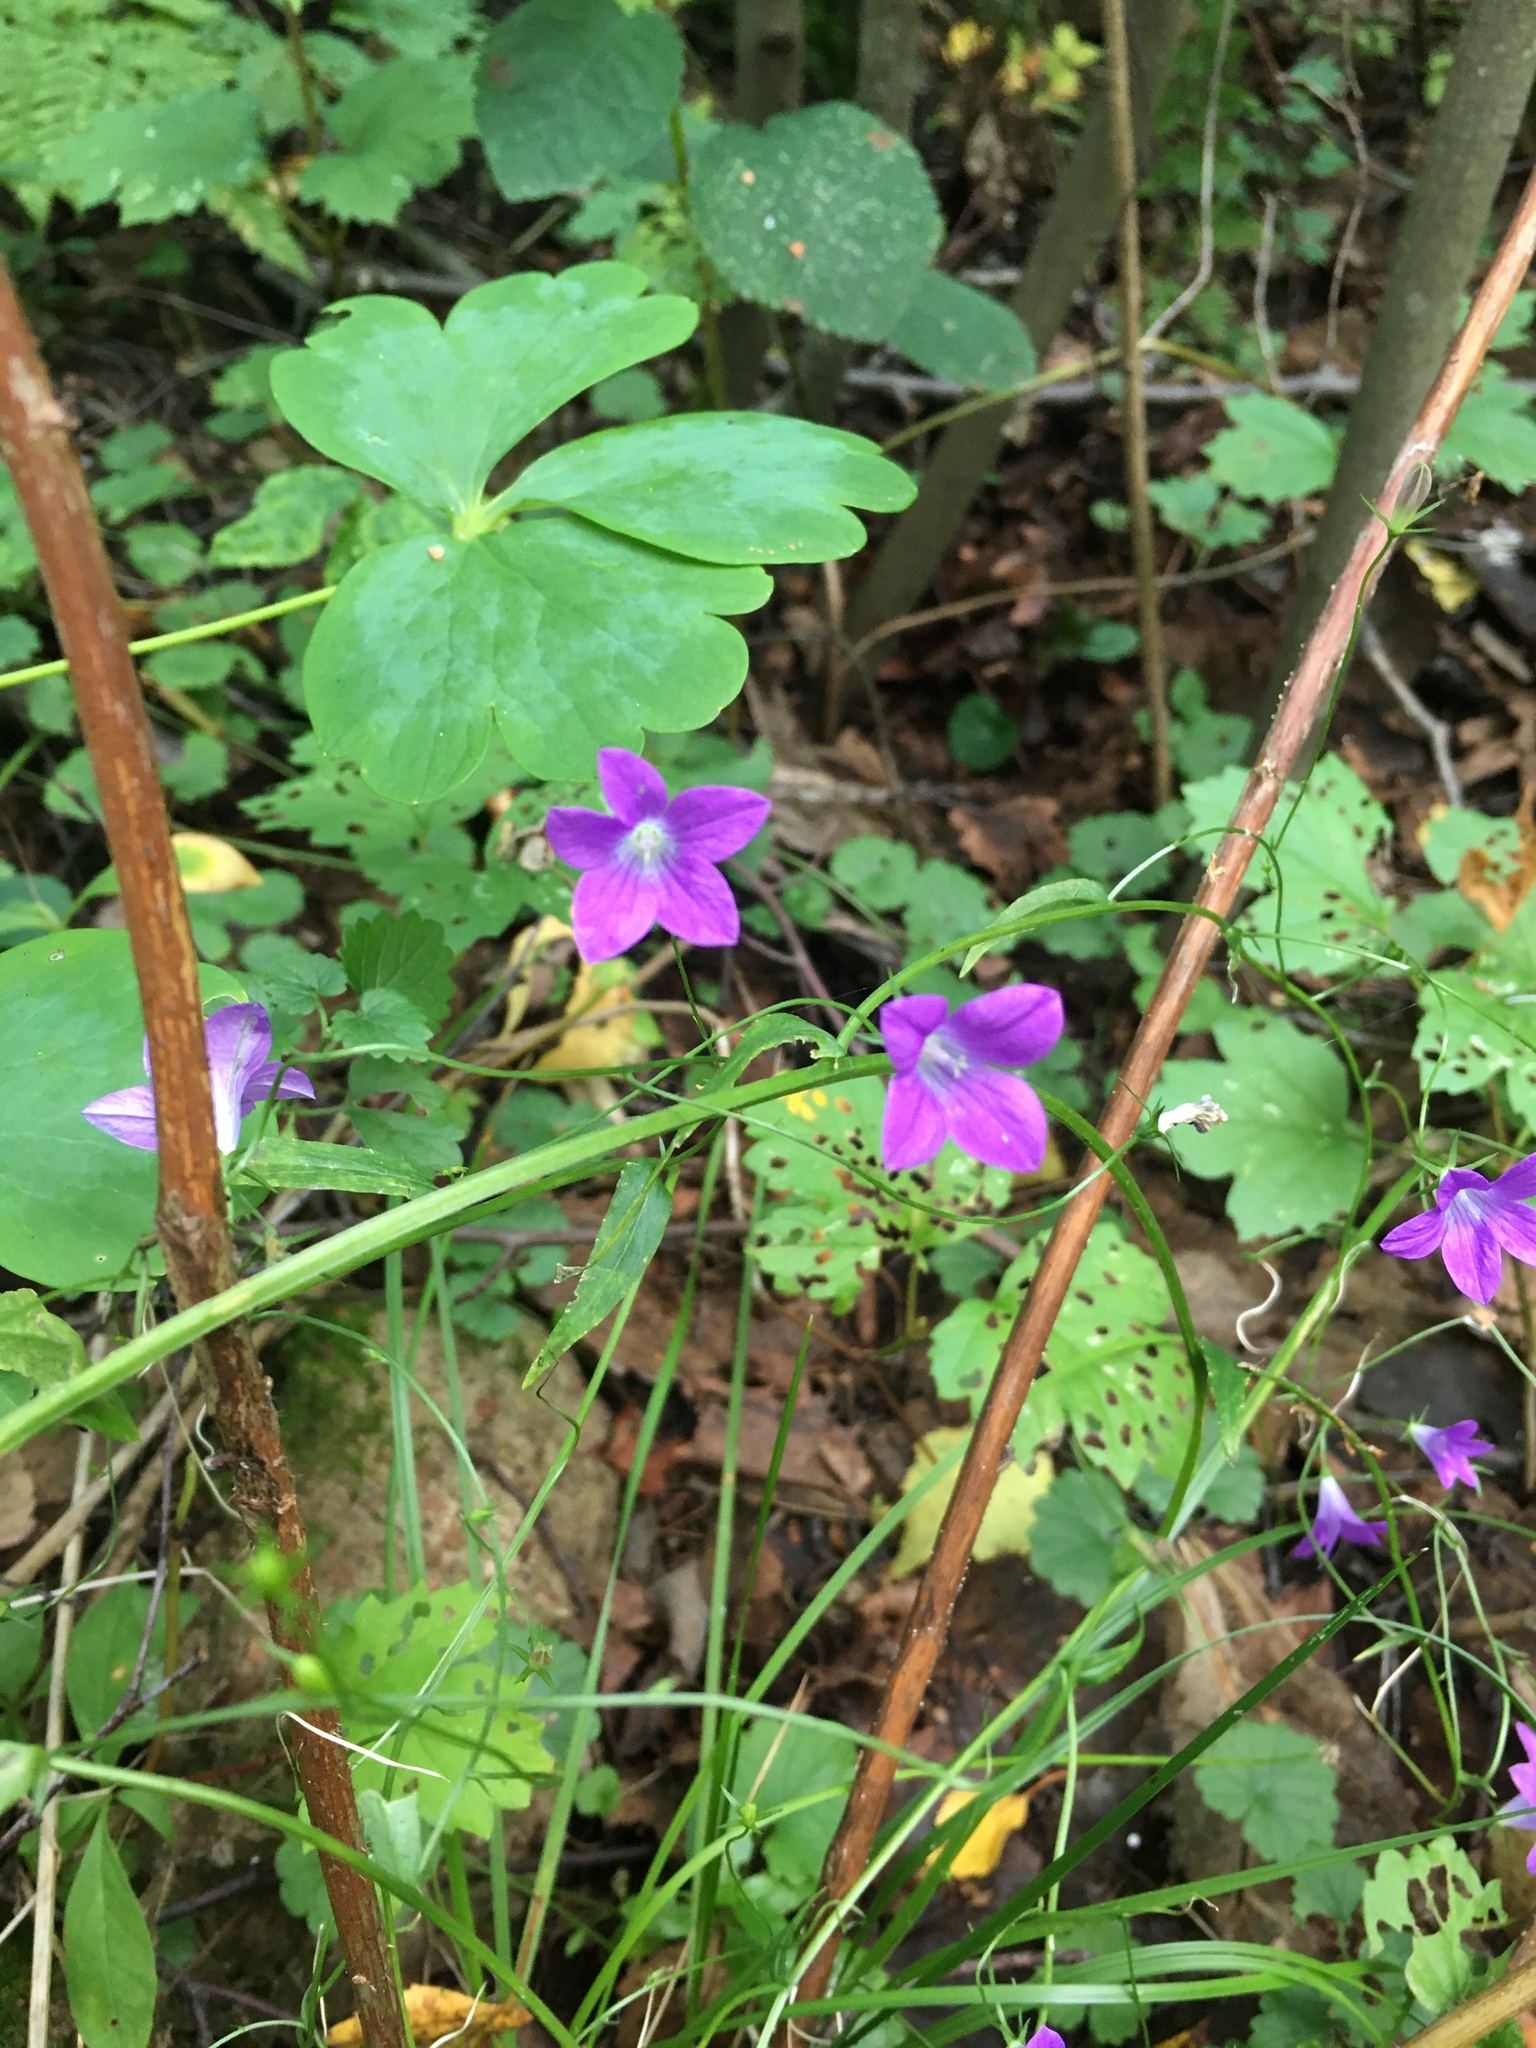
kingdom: Plantae
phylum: Tracheophyta
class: Magnoliopsida
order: Asterales
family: Campanulaceae
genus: Campanula
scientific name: Campanula patula
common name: Spreading bellflower
